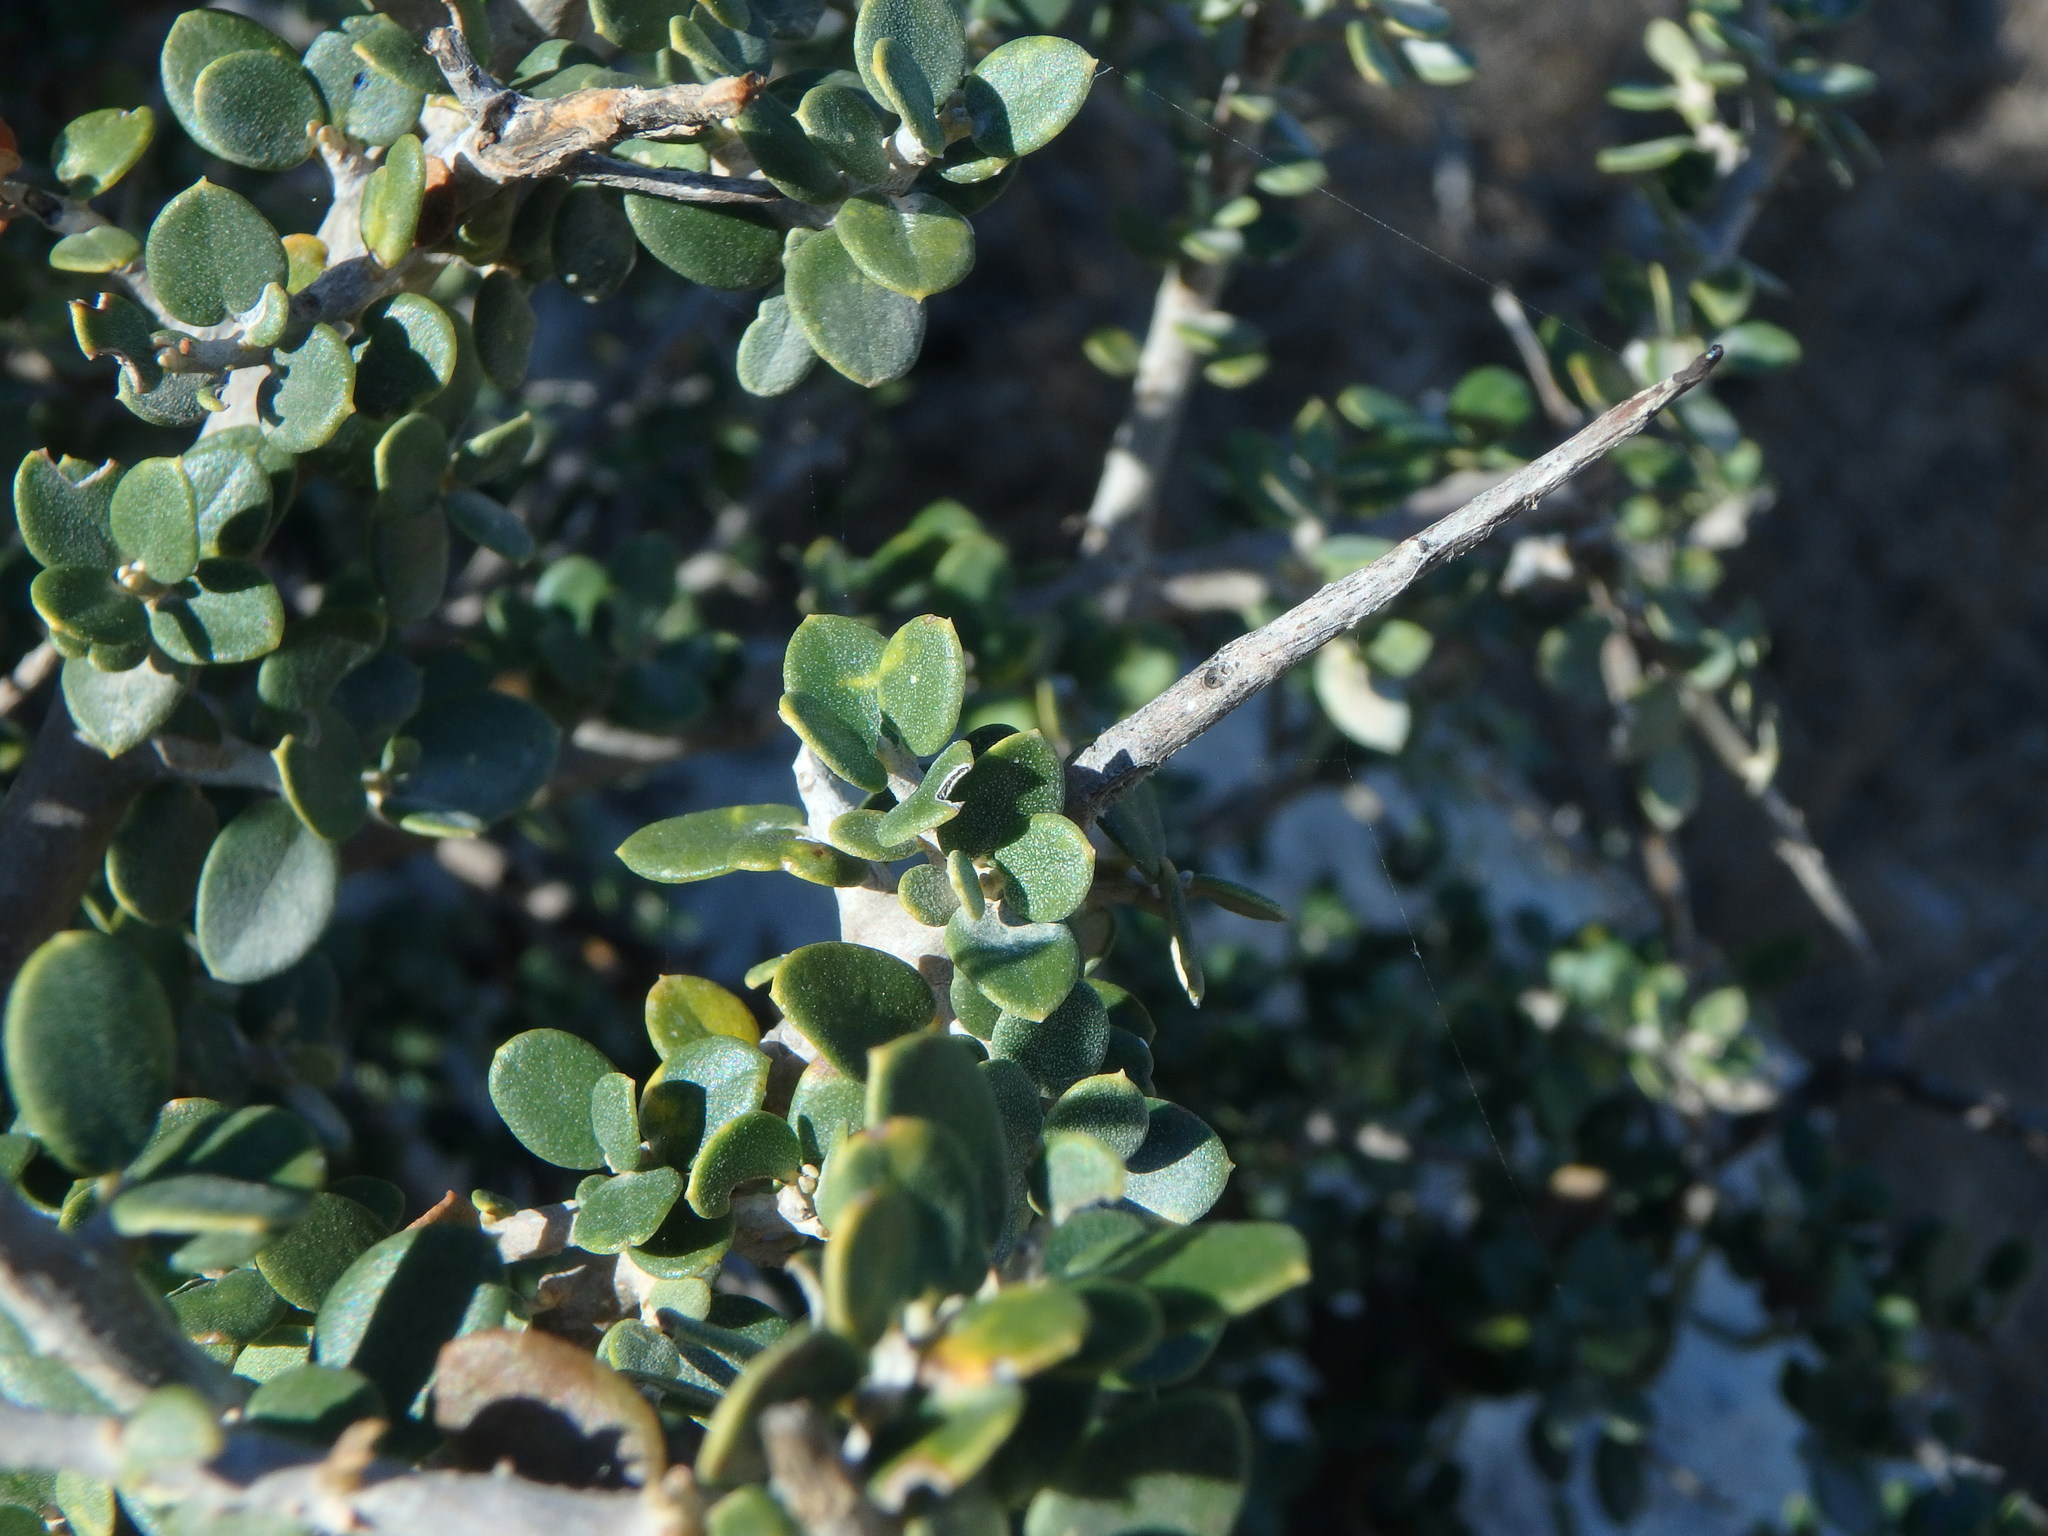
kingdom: Plantae
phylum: Tracheophyta
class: Magnoliopsida
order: Lamiales
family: Oleaceae
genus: Olea
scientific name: Olea europaea
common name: Olive
